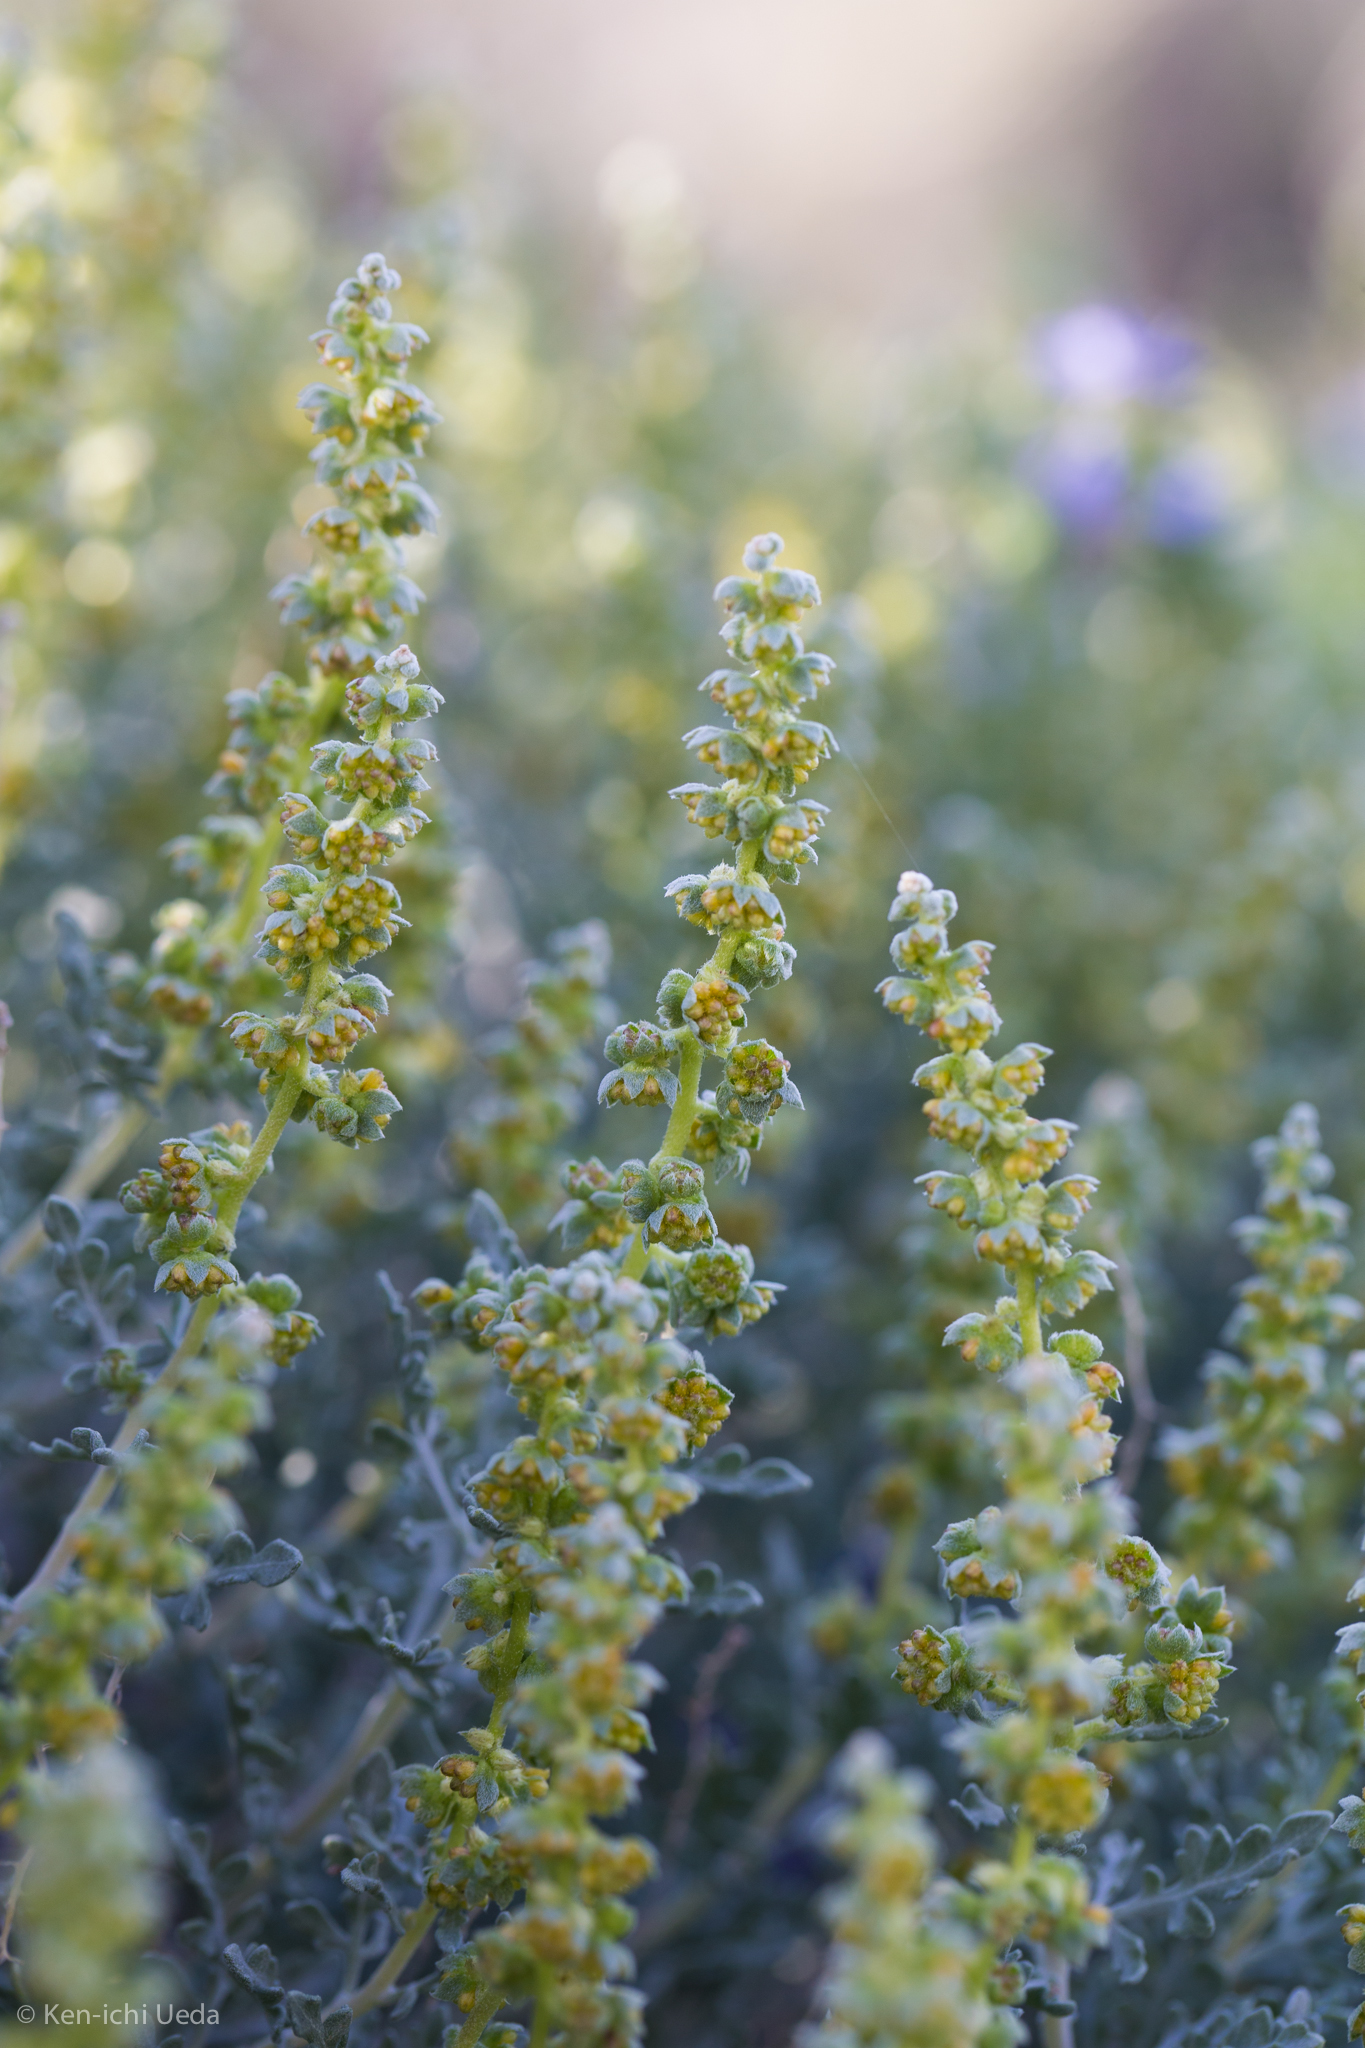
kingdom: Plantae
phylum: Tracheophyta
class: Magnoliopsida
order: Asterales
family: Asteraceae
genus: Ambrosia
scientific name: Ambrosia dumosa
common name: Bur-sage
